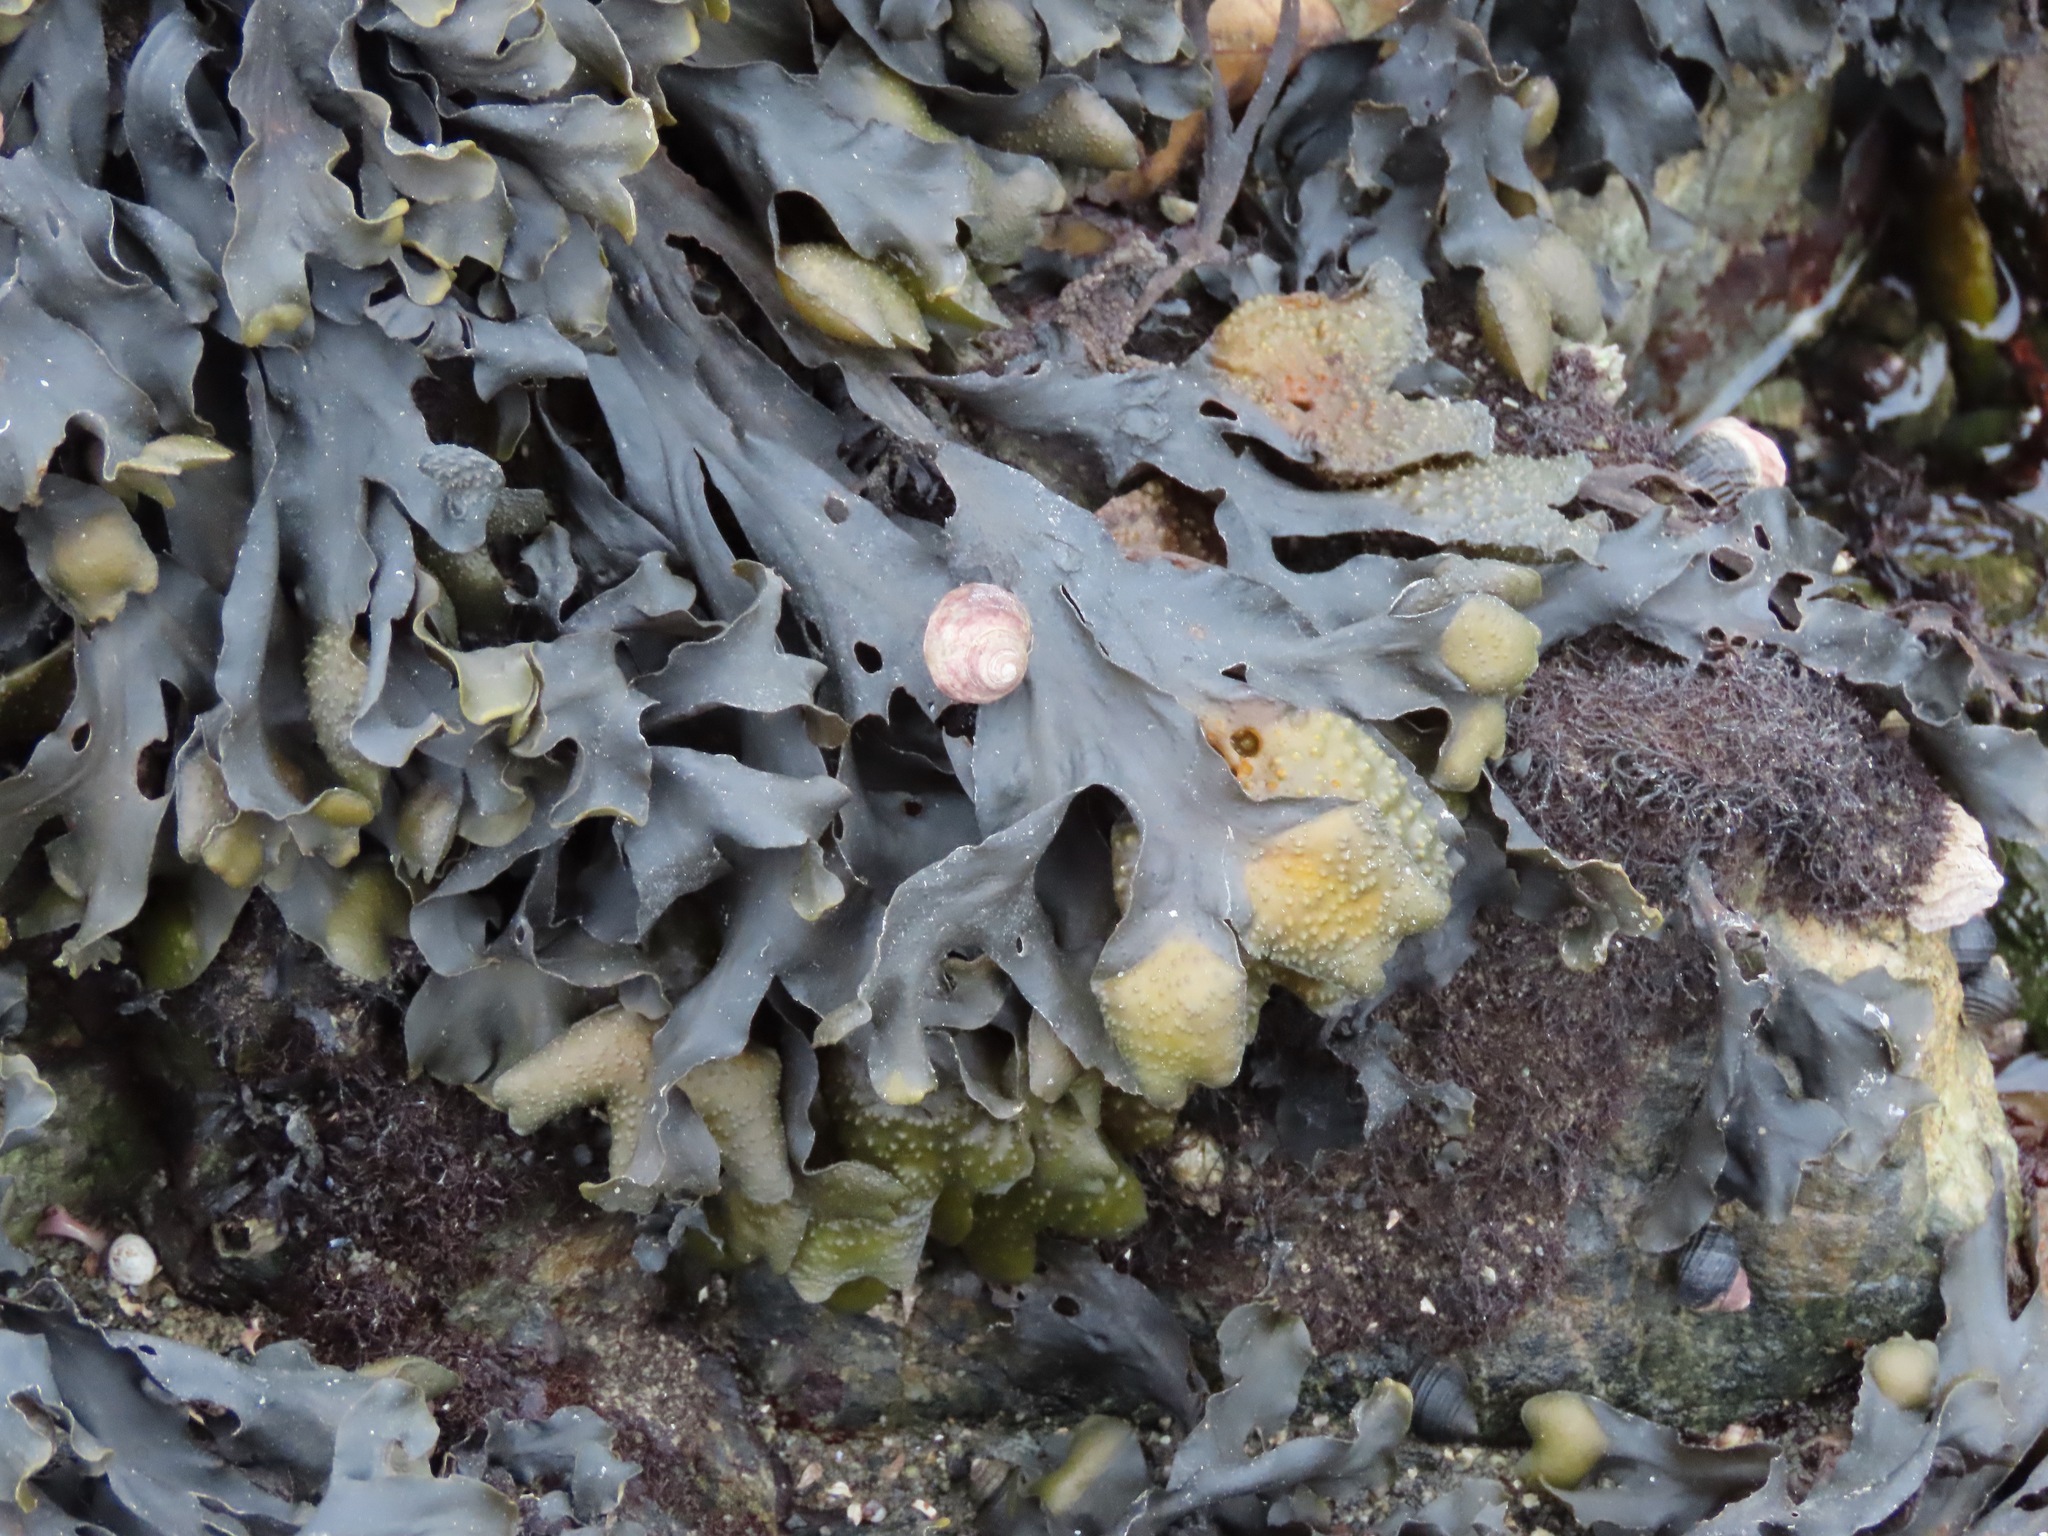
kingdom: Chromista
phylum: Ochrophyta
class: Phaeophyceae
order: Fucales
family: Fucaceae
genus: Fucus
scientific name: Fucus distichus
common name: Rockweed
